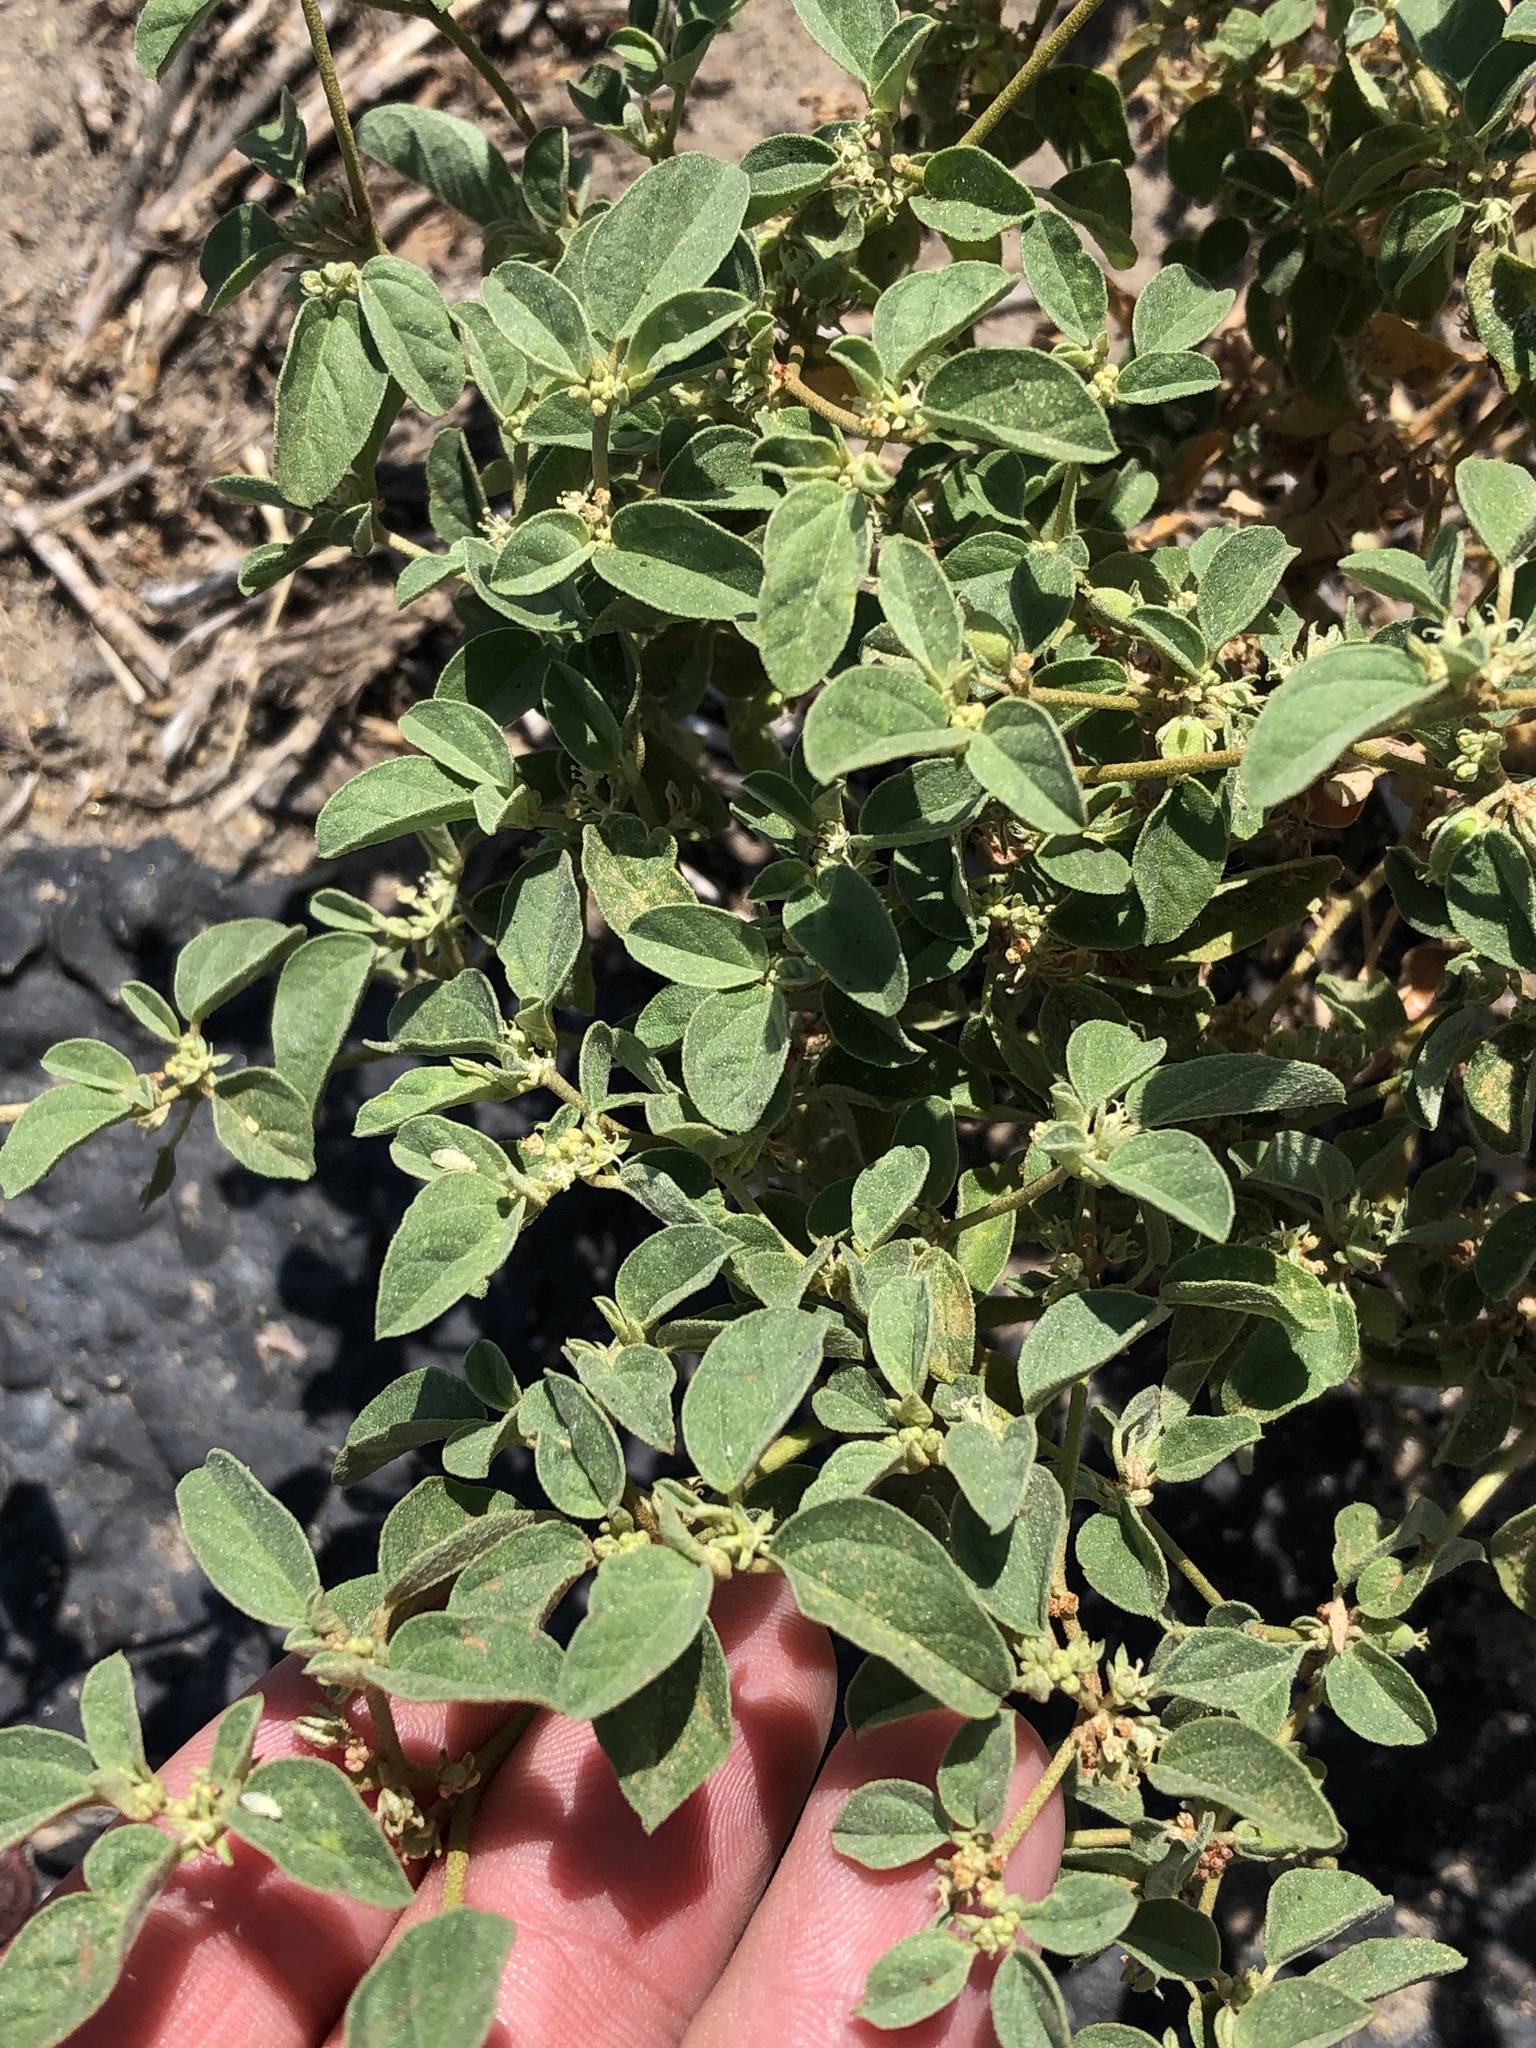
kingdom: Plantae
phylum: Tracheophyta
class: Magnoliopsida
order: Malpighiales
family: Euphorbiaceae
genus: Croton
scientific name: Croton monanthogynus
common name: One-seed croton
